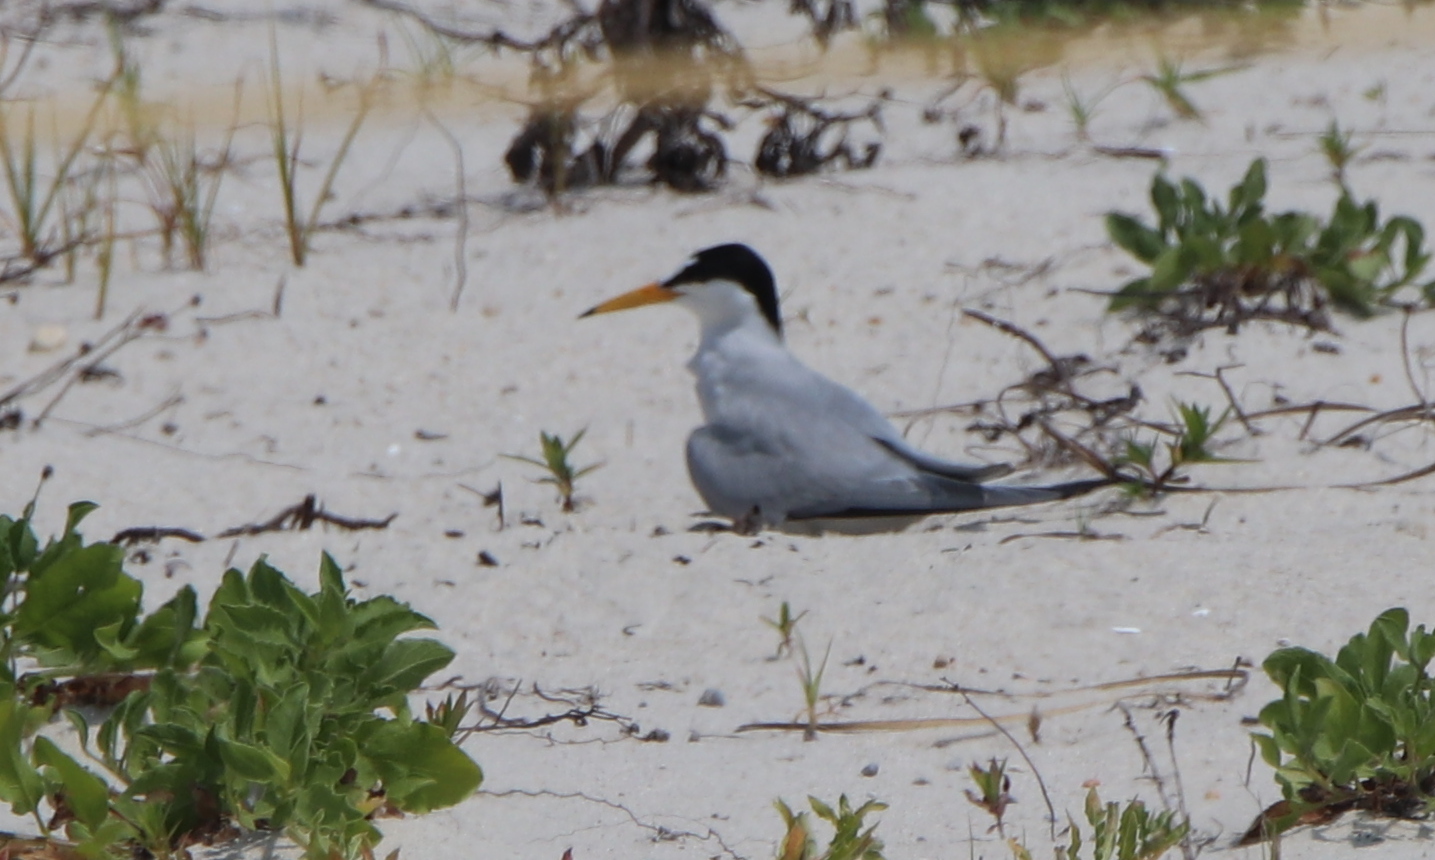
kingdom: Animalia
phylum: Chordata
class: Aves
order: Charadriiformes
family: Laridae
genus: Sternula
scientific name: Sternula antillarum
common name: Least tern
